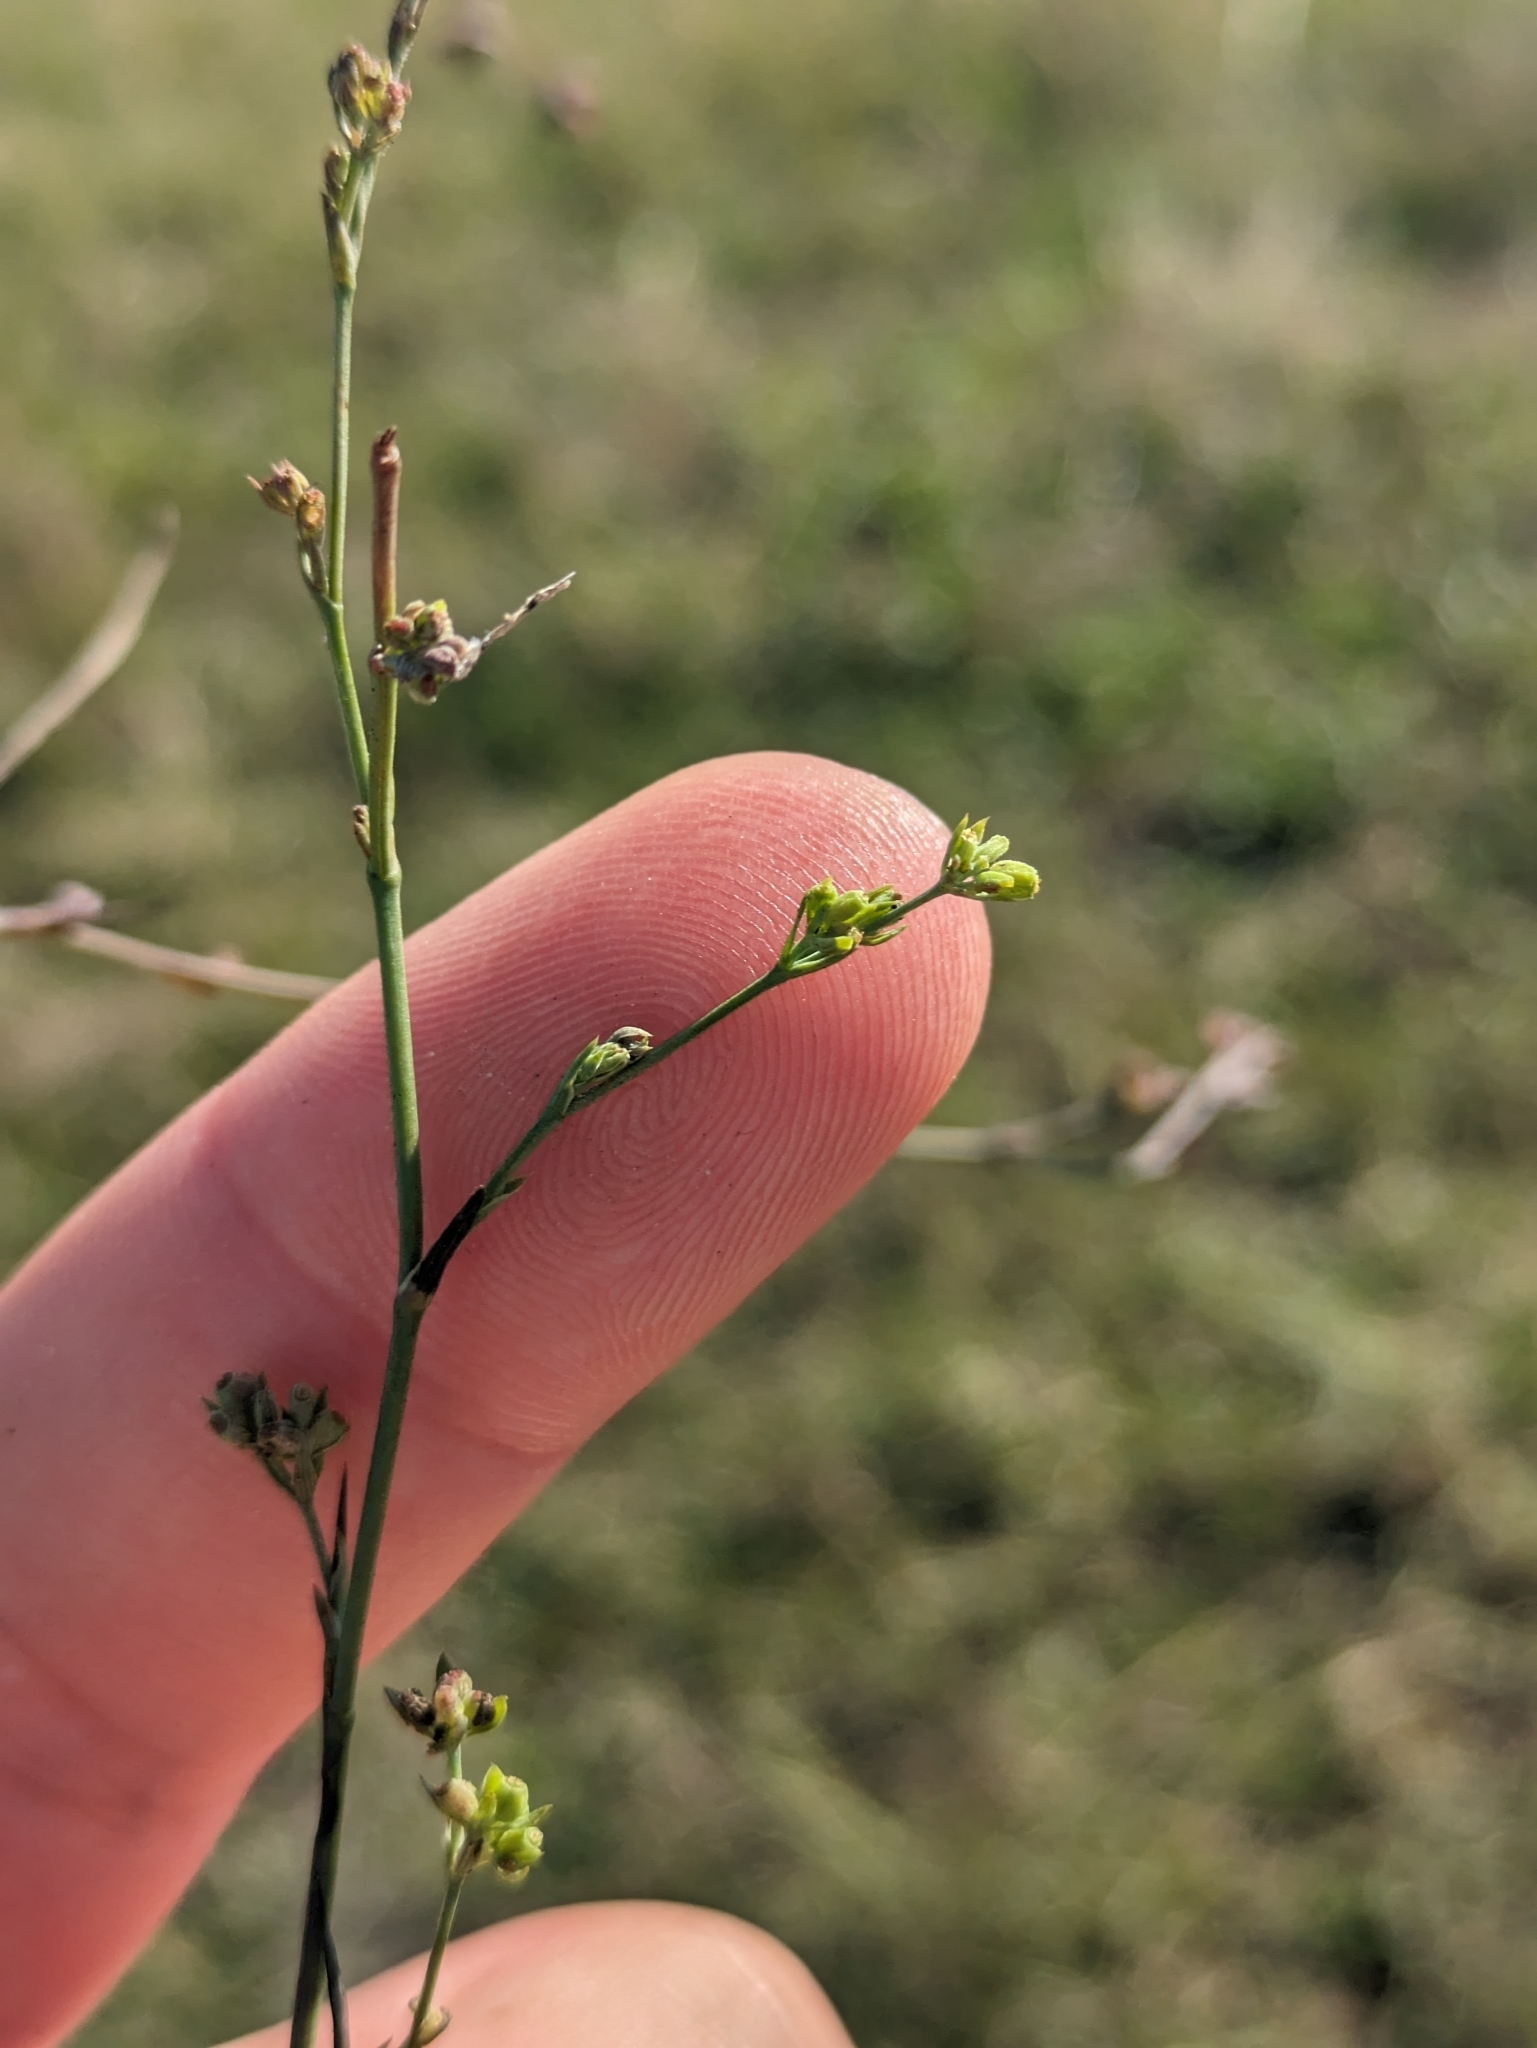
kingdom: Plantae
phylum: Tracheophyta
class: Magnoliopsida
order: Apiales
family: Apiaceae
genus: Bupleurum
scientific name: Bupleurum tenuissimum
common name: Slender hare's-ear
